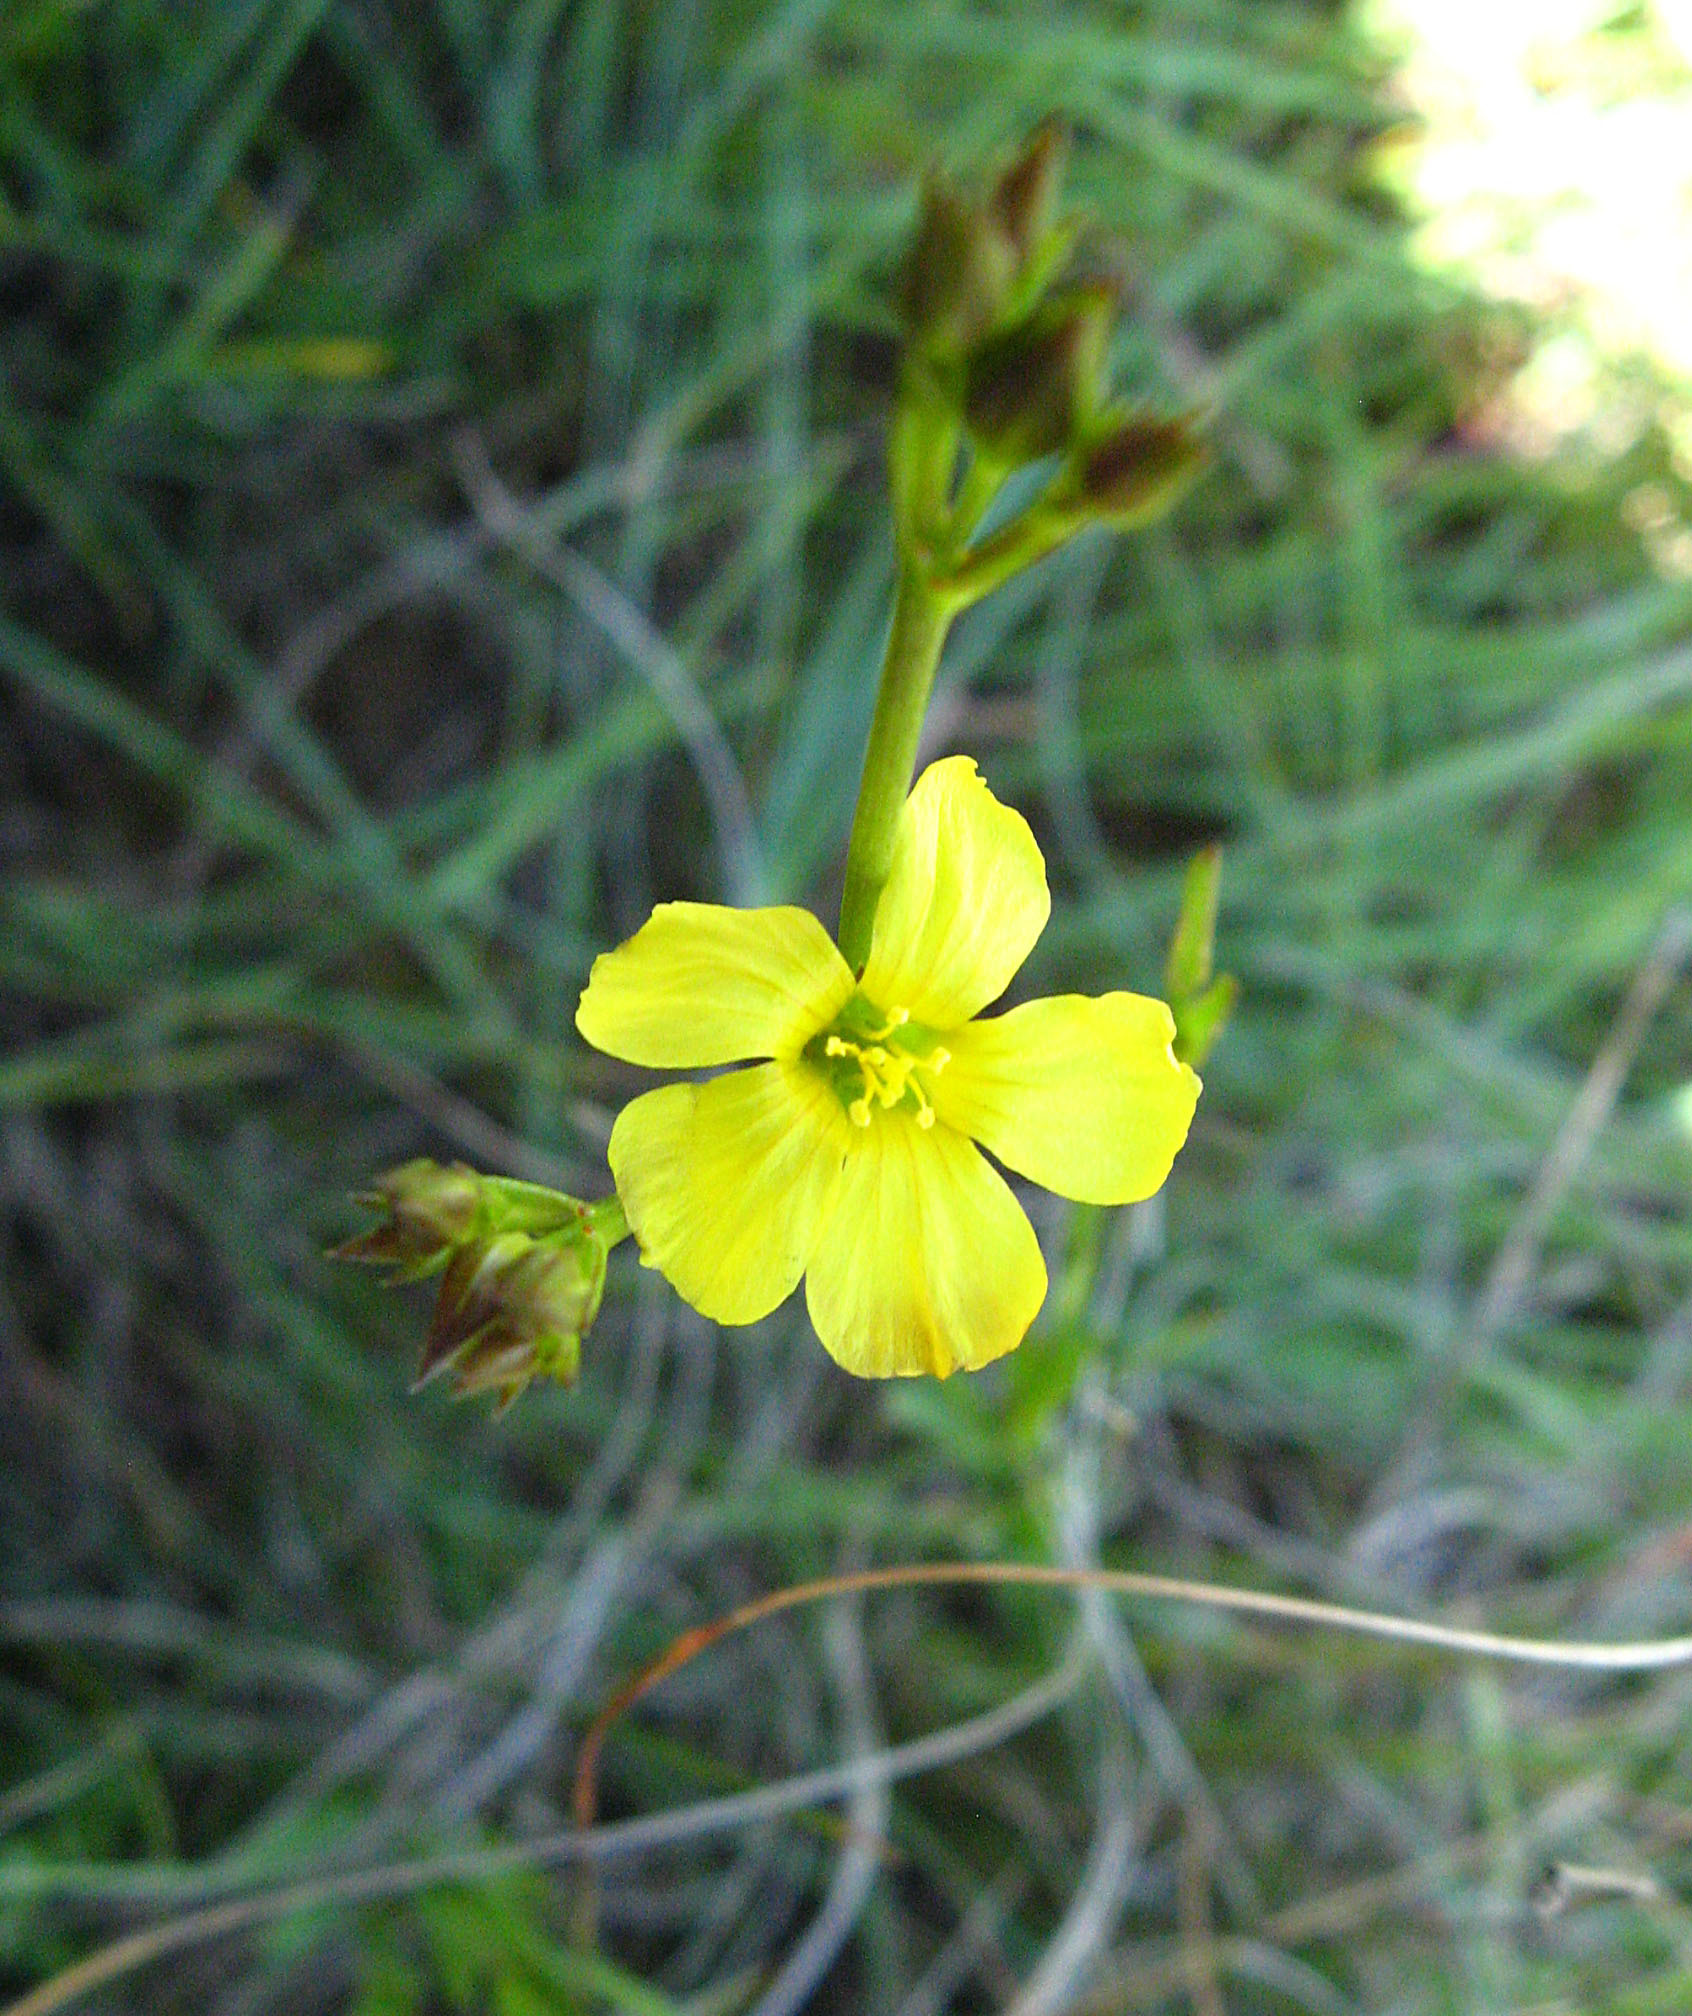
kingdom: Plantae
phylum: Tracheophyta
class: Magnoliopsida
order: Malpighiales
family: Hypericaceae
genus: Hypericum
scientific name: Hypericum lalandii
